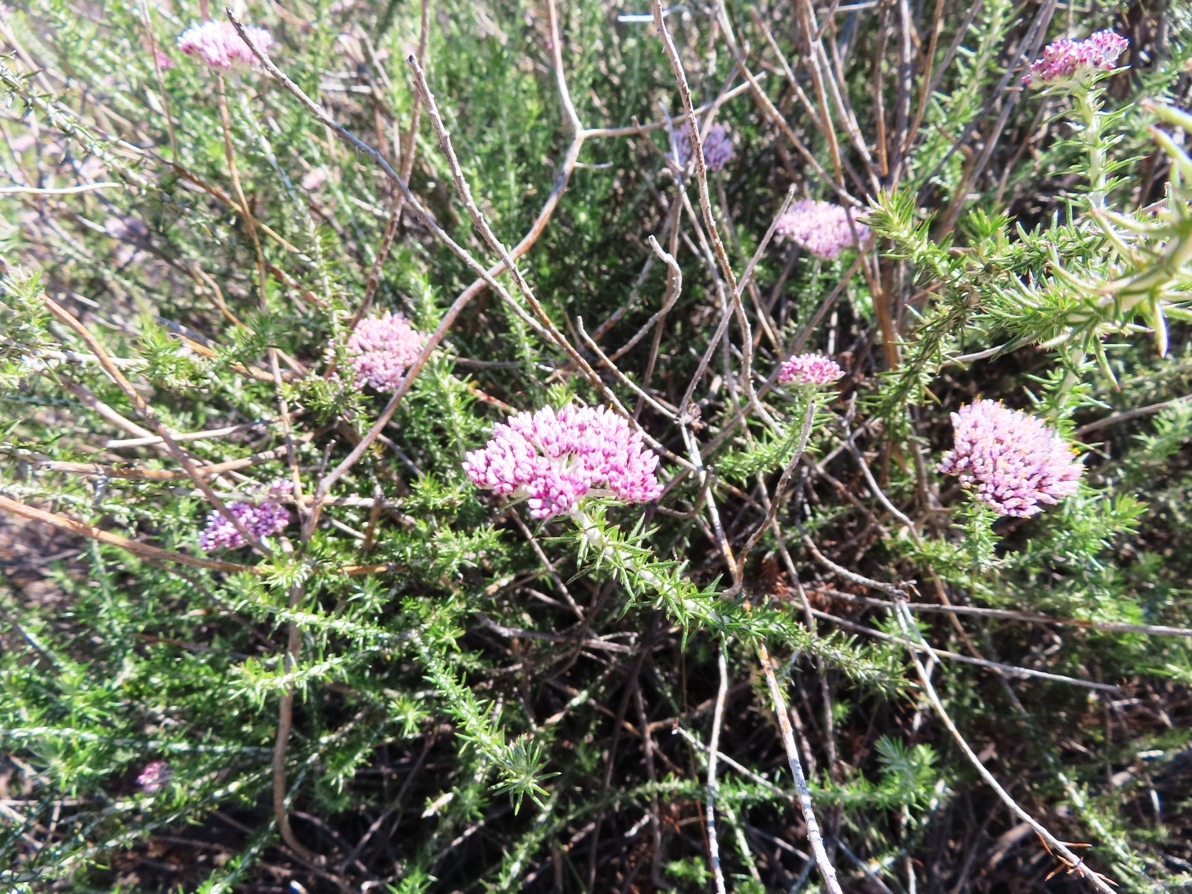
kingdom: Plantae
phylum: Tracheophyta
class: Magnoliopsida
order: Asterales
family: Asteraceae
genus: Metalasia
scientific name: Metalasia fastigiata
